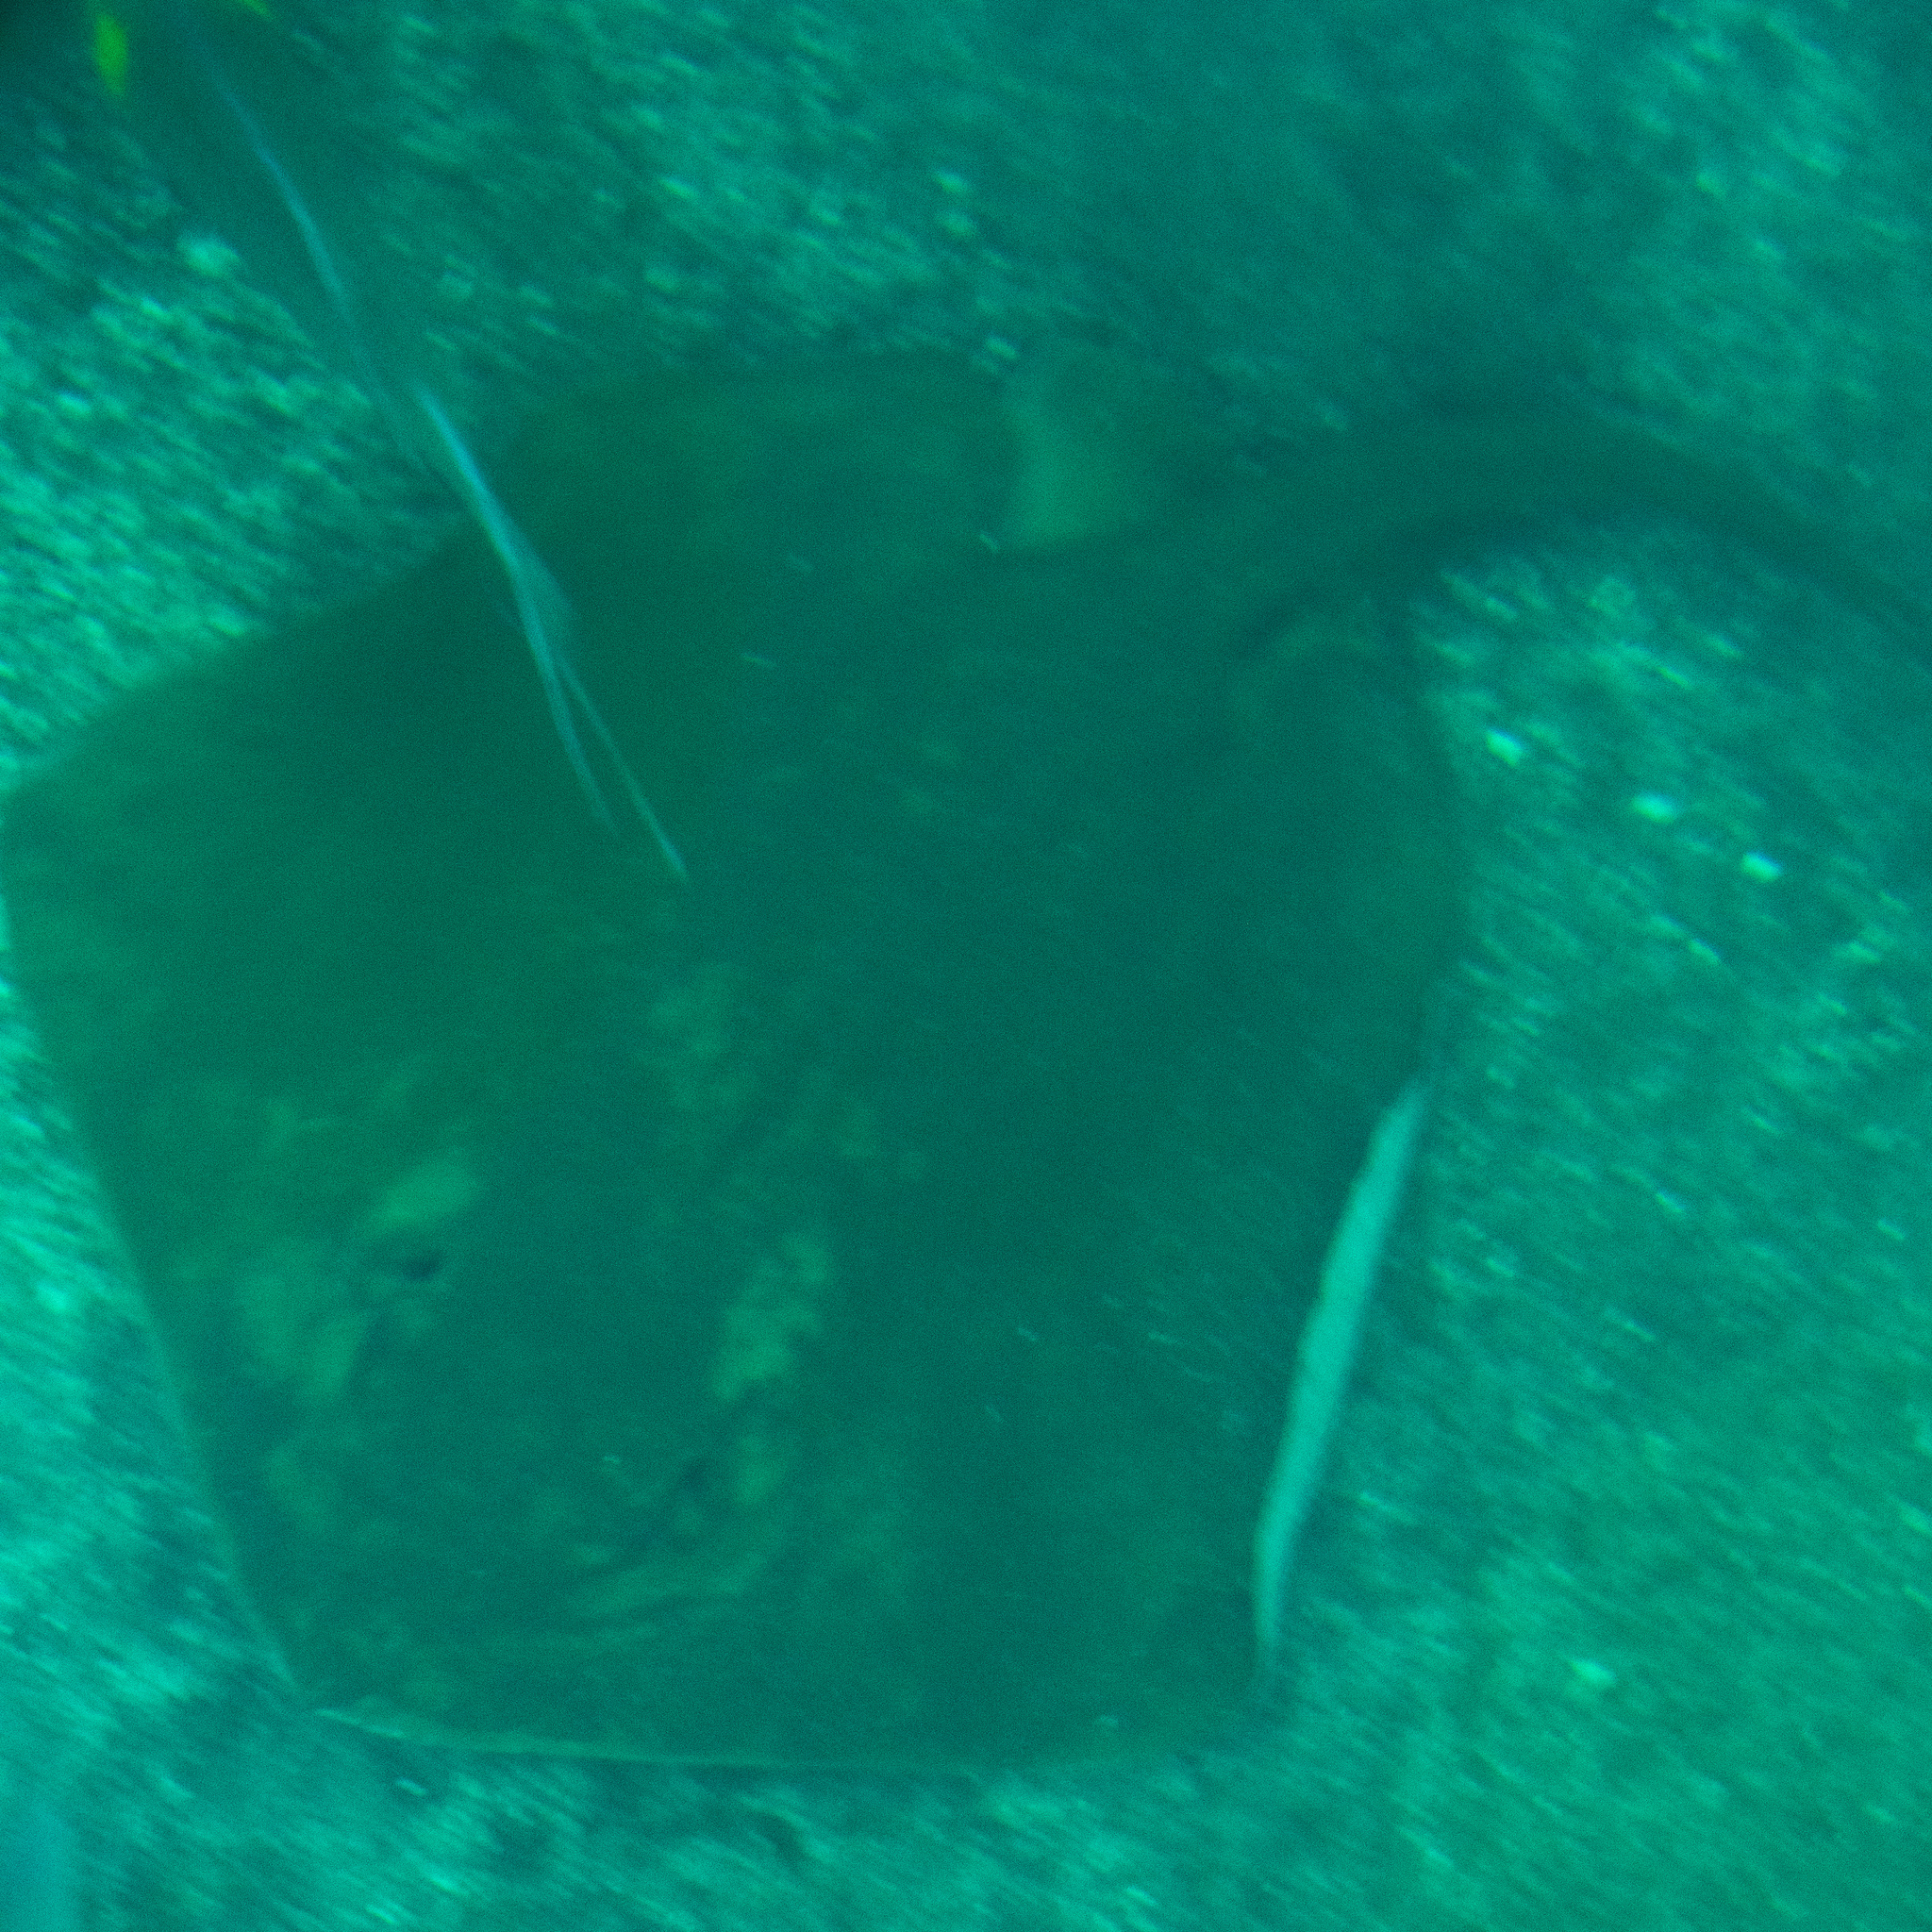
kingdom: Animalia
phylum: Chordata
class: Elasmobranchii
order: Myliobatiformes
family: Dasyatidae
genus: Hypanus
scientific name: Hypanus dipterurus
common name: Diamond stingray
